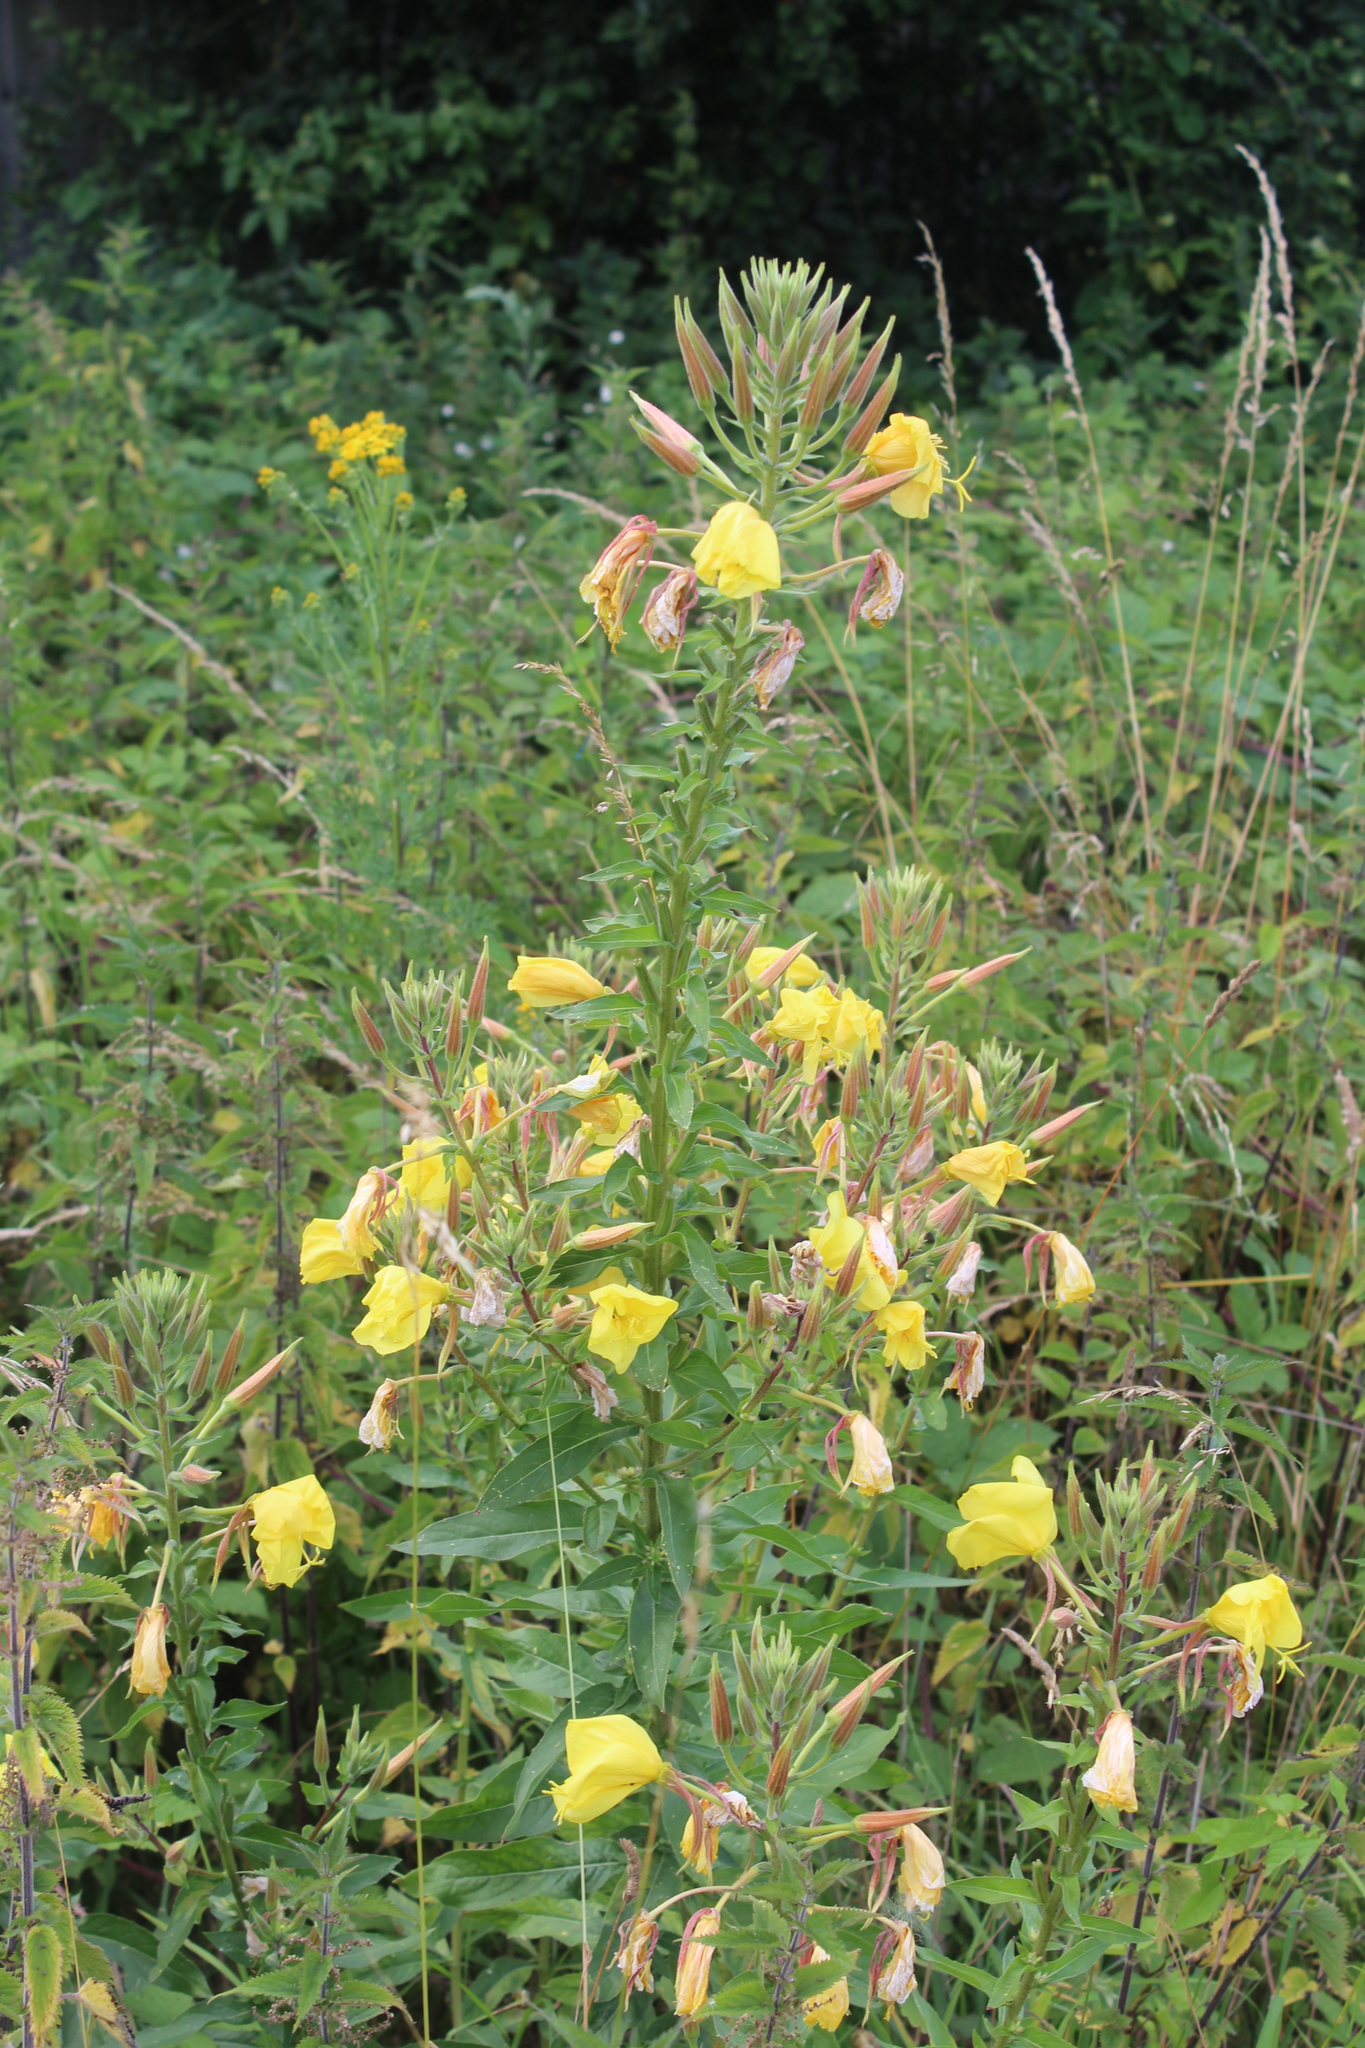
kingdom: Plantae
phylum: Tracheophyta
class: Magnoliopsida
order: Myrtales
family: Onagraceae
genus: Oenothera
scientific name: Oenothera glazioviana
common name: Large-flowered evening-primrose
